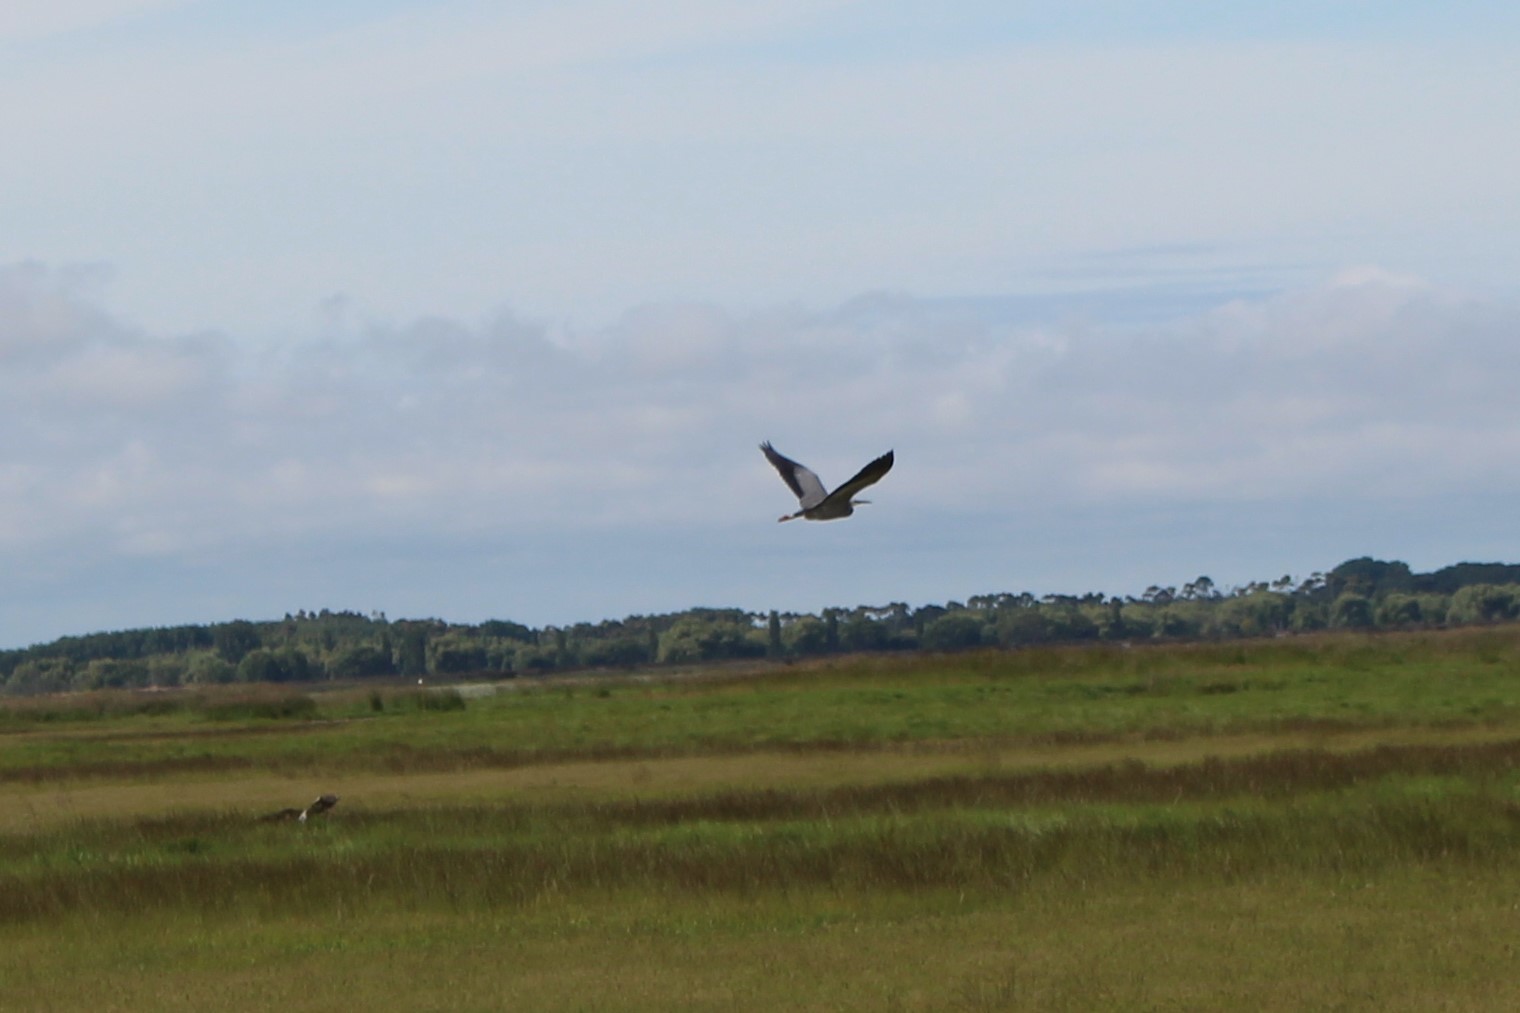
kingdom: Animalia
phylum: Chordata
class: Aves
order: Pelecaniformes
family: Ardeidae
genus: Egretta
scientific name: Egretta novaehollandiae
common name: White-faced heron
